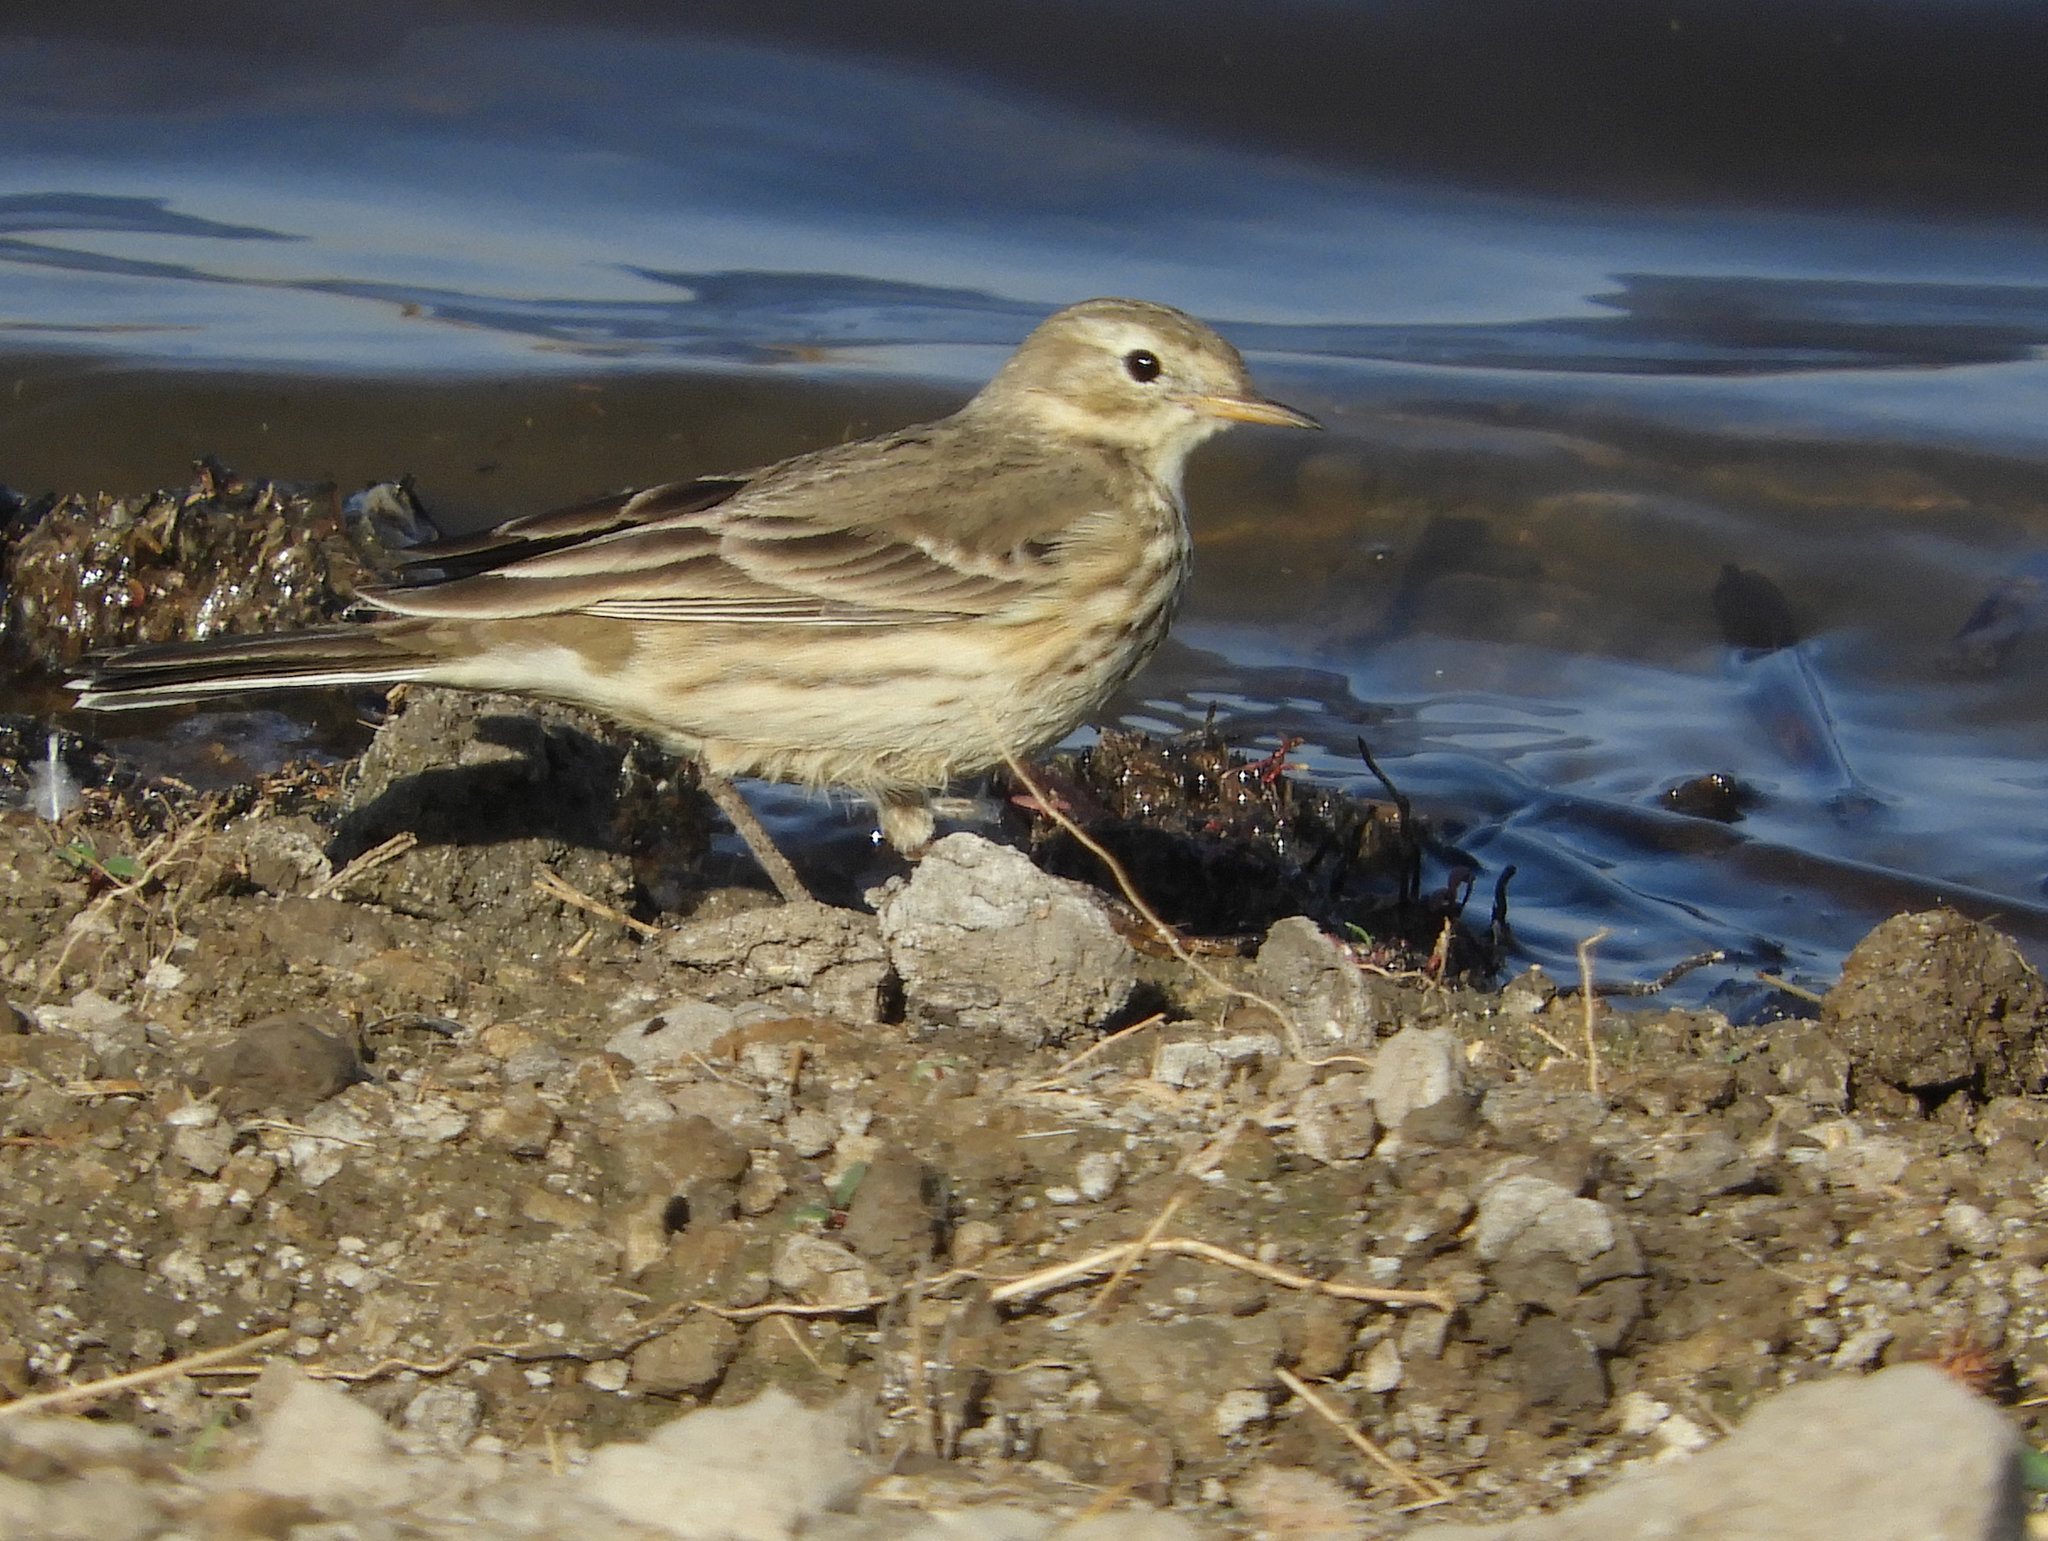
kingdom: Animalia
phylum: Chordata
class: Aves
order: Passeriformes
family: Motacillidae
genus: Anthus
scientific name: Anthus rubescens
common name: Buff-bellied pipit
